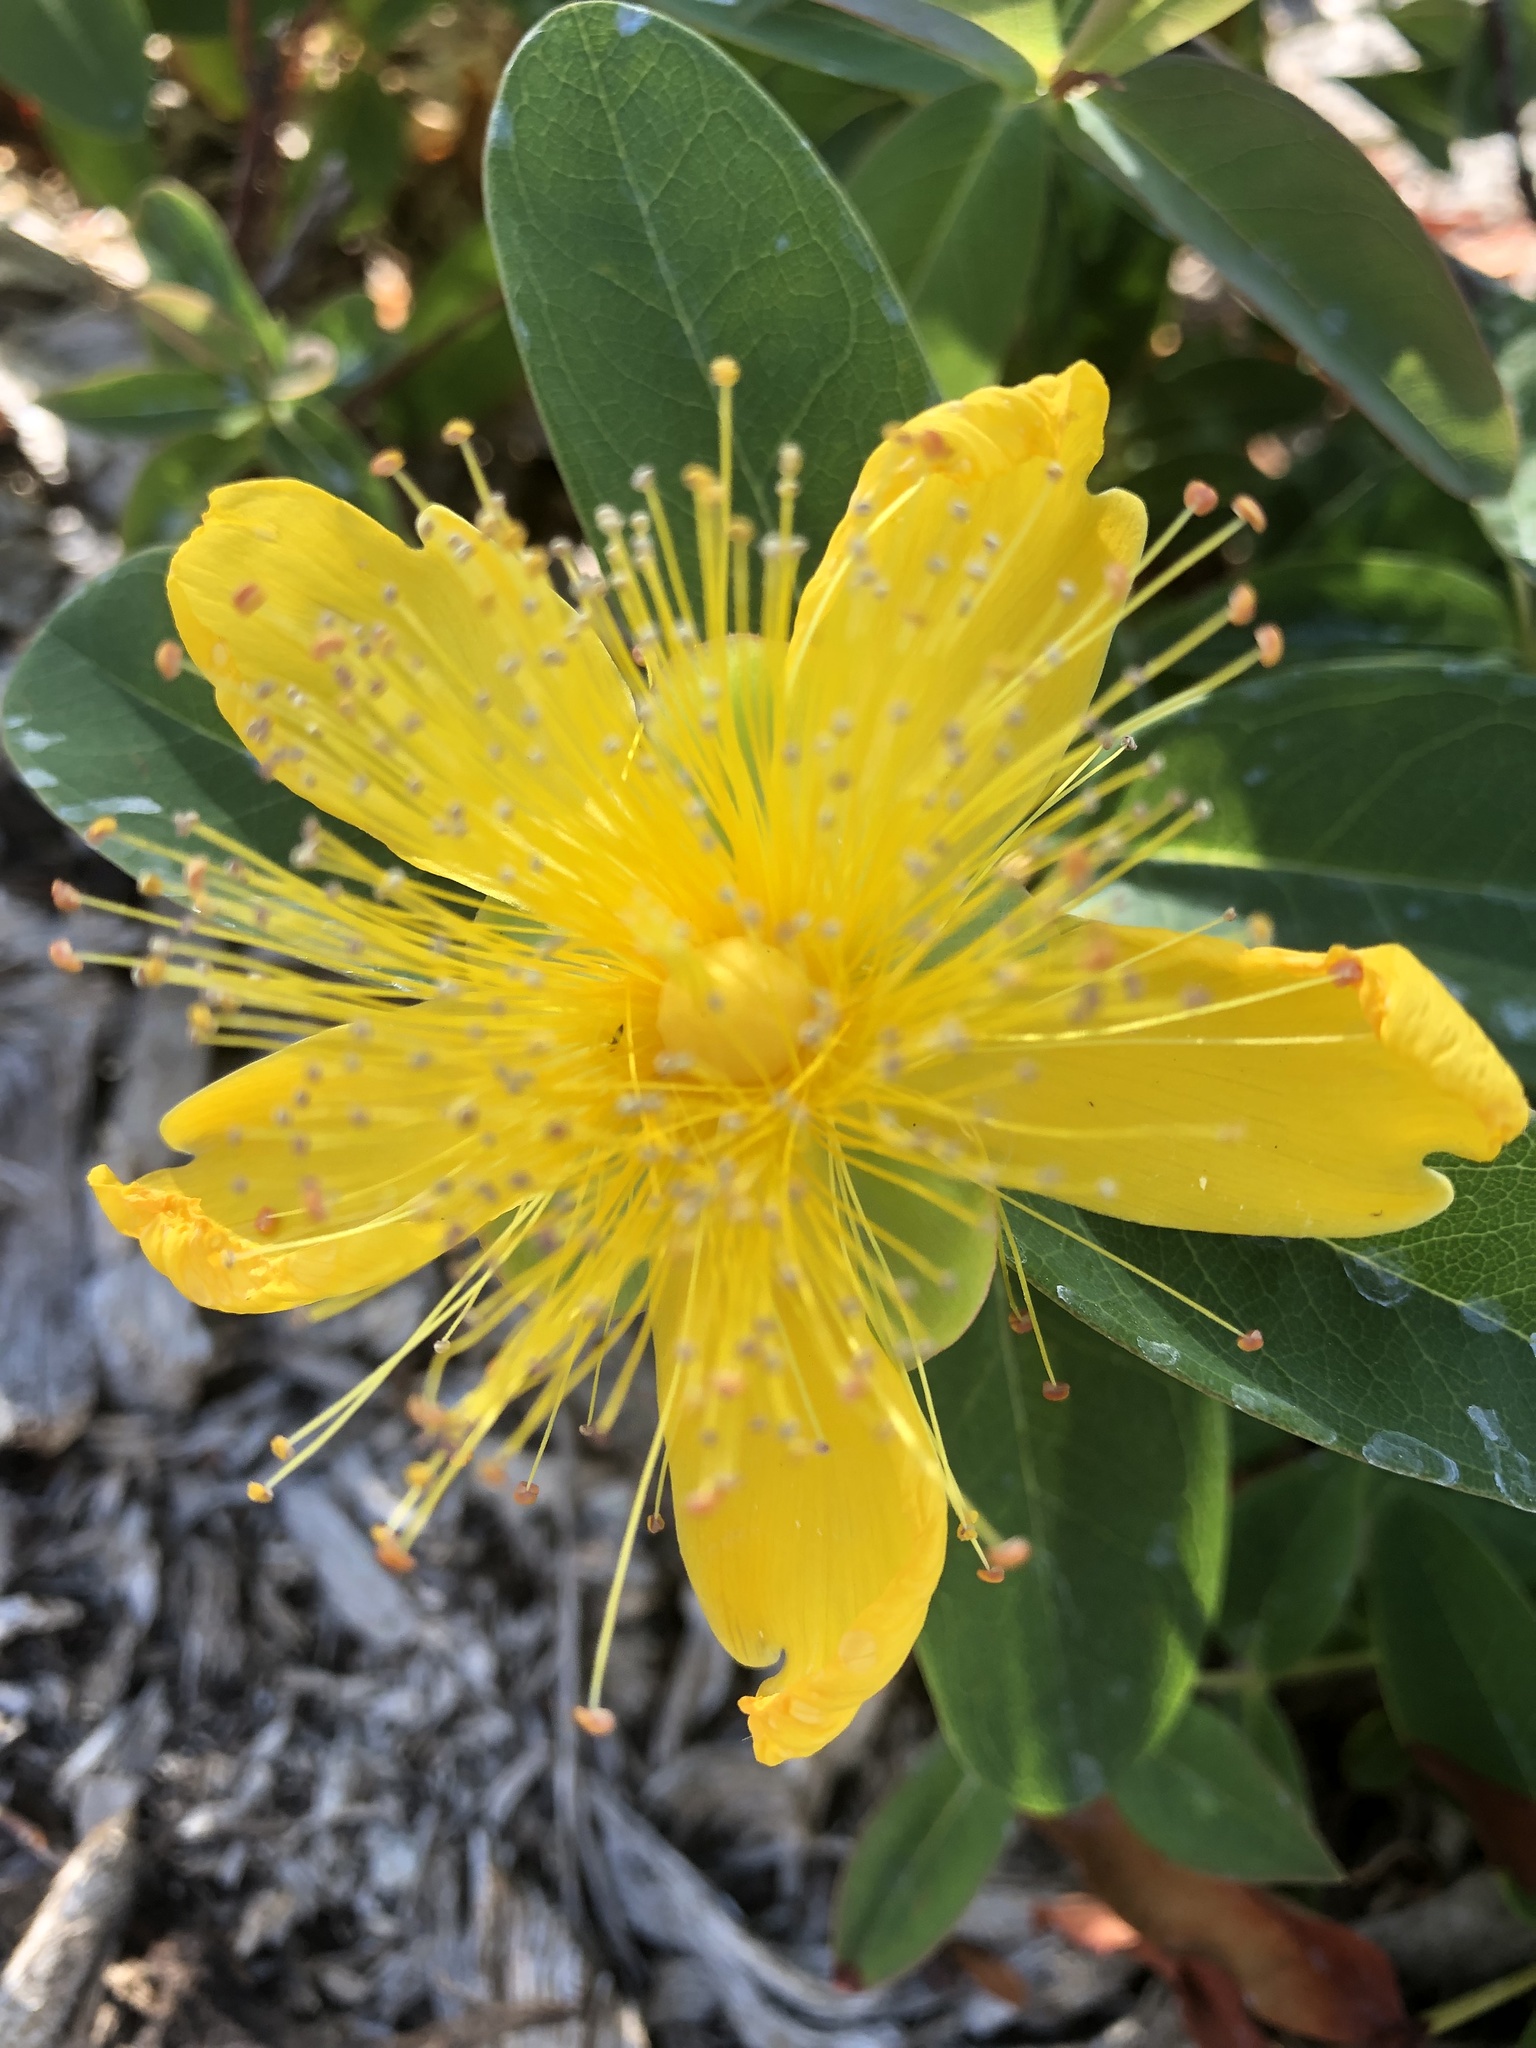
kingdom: Plantae
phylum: Tracheophyta
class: Magnoliopsida
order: Malpighiales
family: Hypericaceae
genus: Hypericum
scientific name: Hypericum calycinum
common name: Rose-of-sharon
